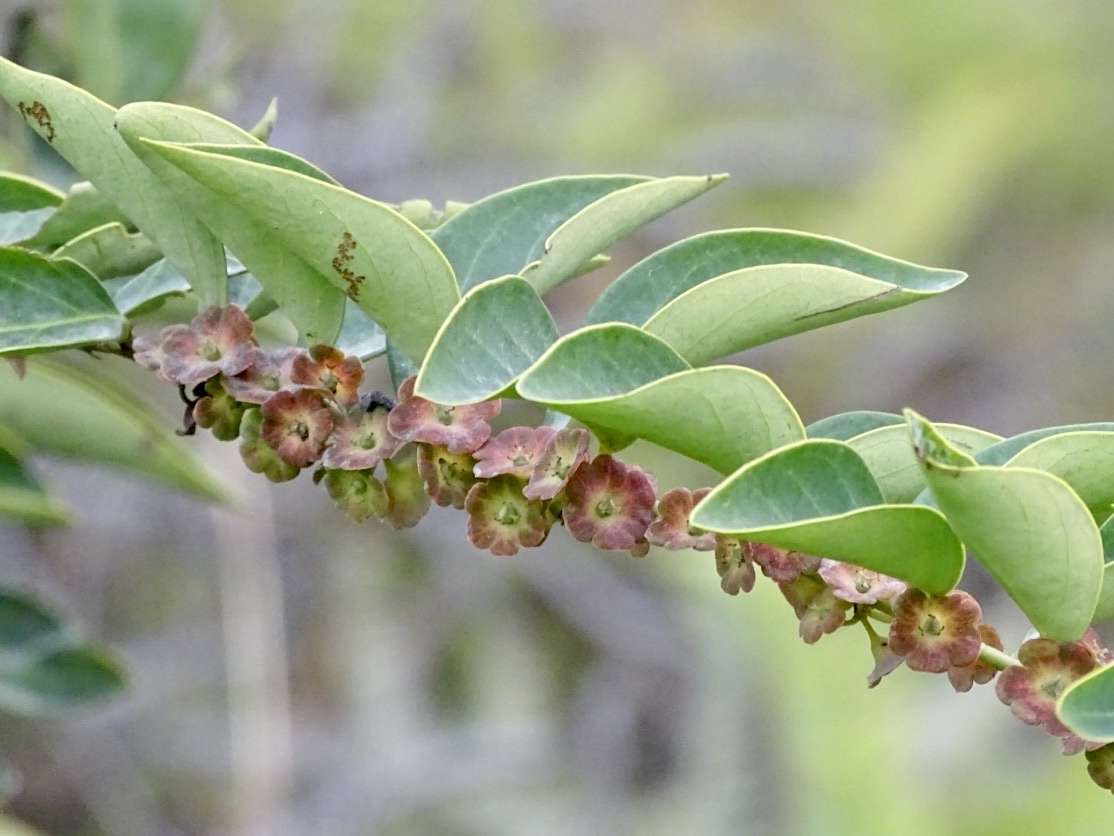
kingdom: Plantae
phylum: Tracheophyta
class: Magnoliopsida
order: Malpighiales
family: Phyllanthaceae
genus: Breynia
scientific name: Breynia fruticosa
